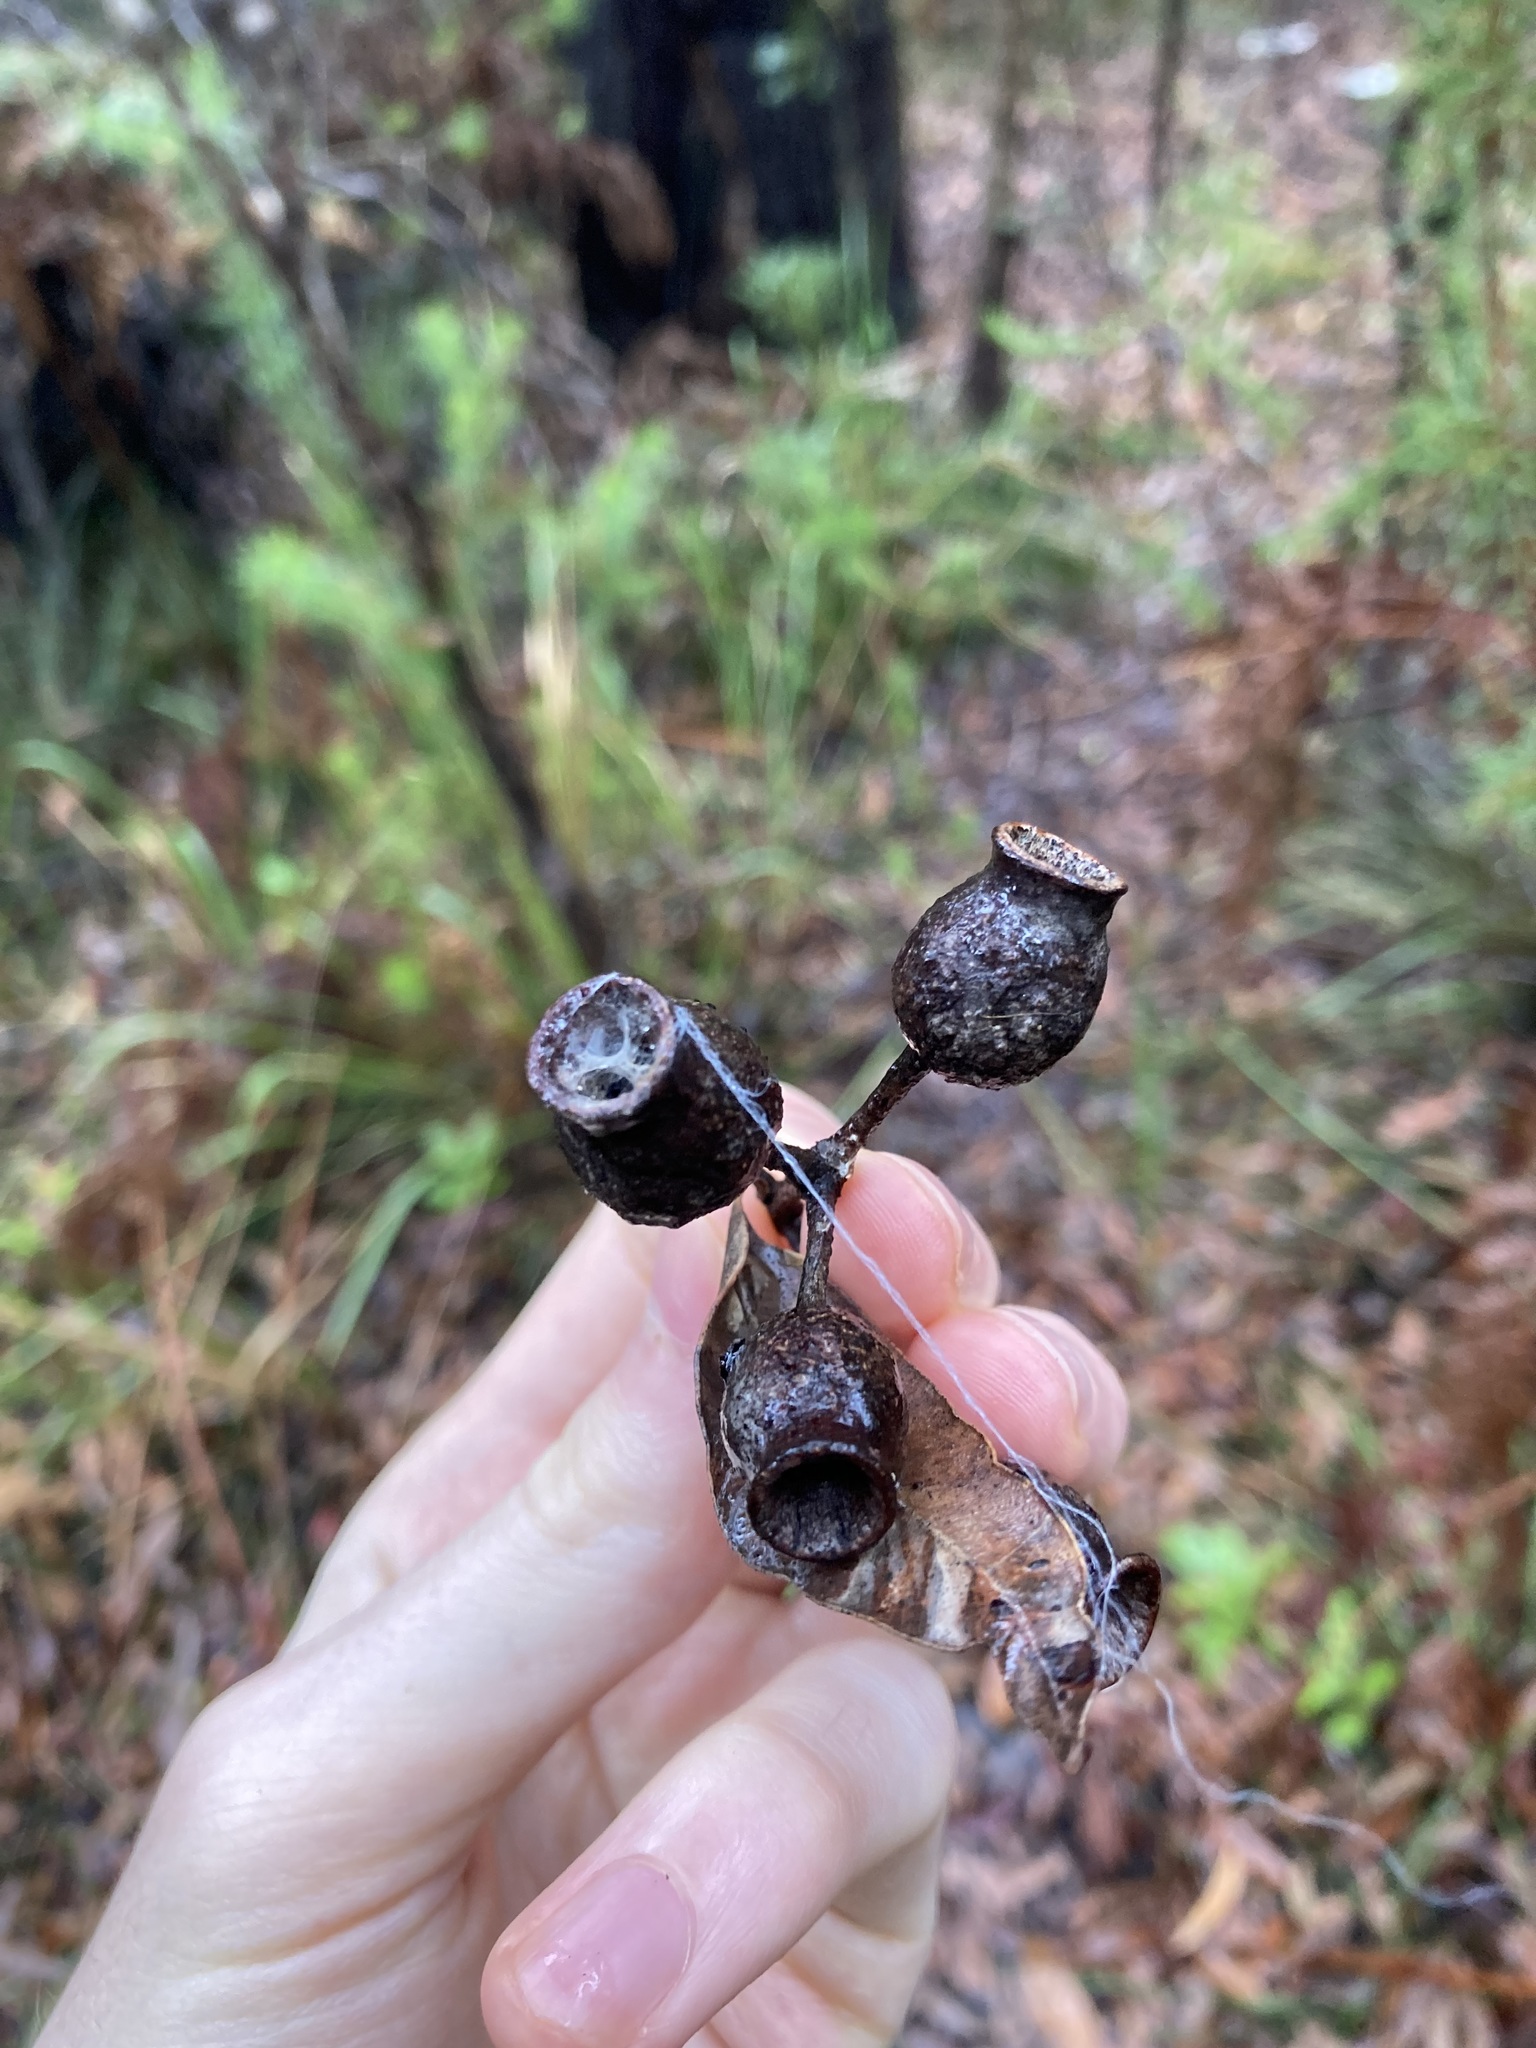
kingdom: Plantae
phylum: Tracheophyta
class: Magnoliopsida
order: Myrtales
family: Myrtaceae
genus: Corymbia
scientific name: Corymbia gummifera
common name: Red bloodwood
